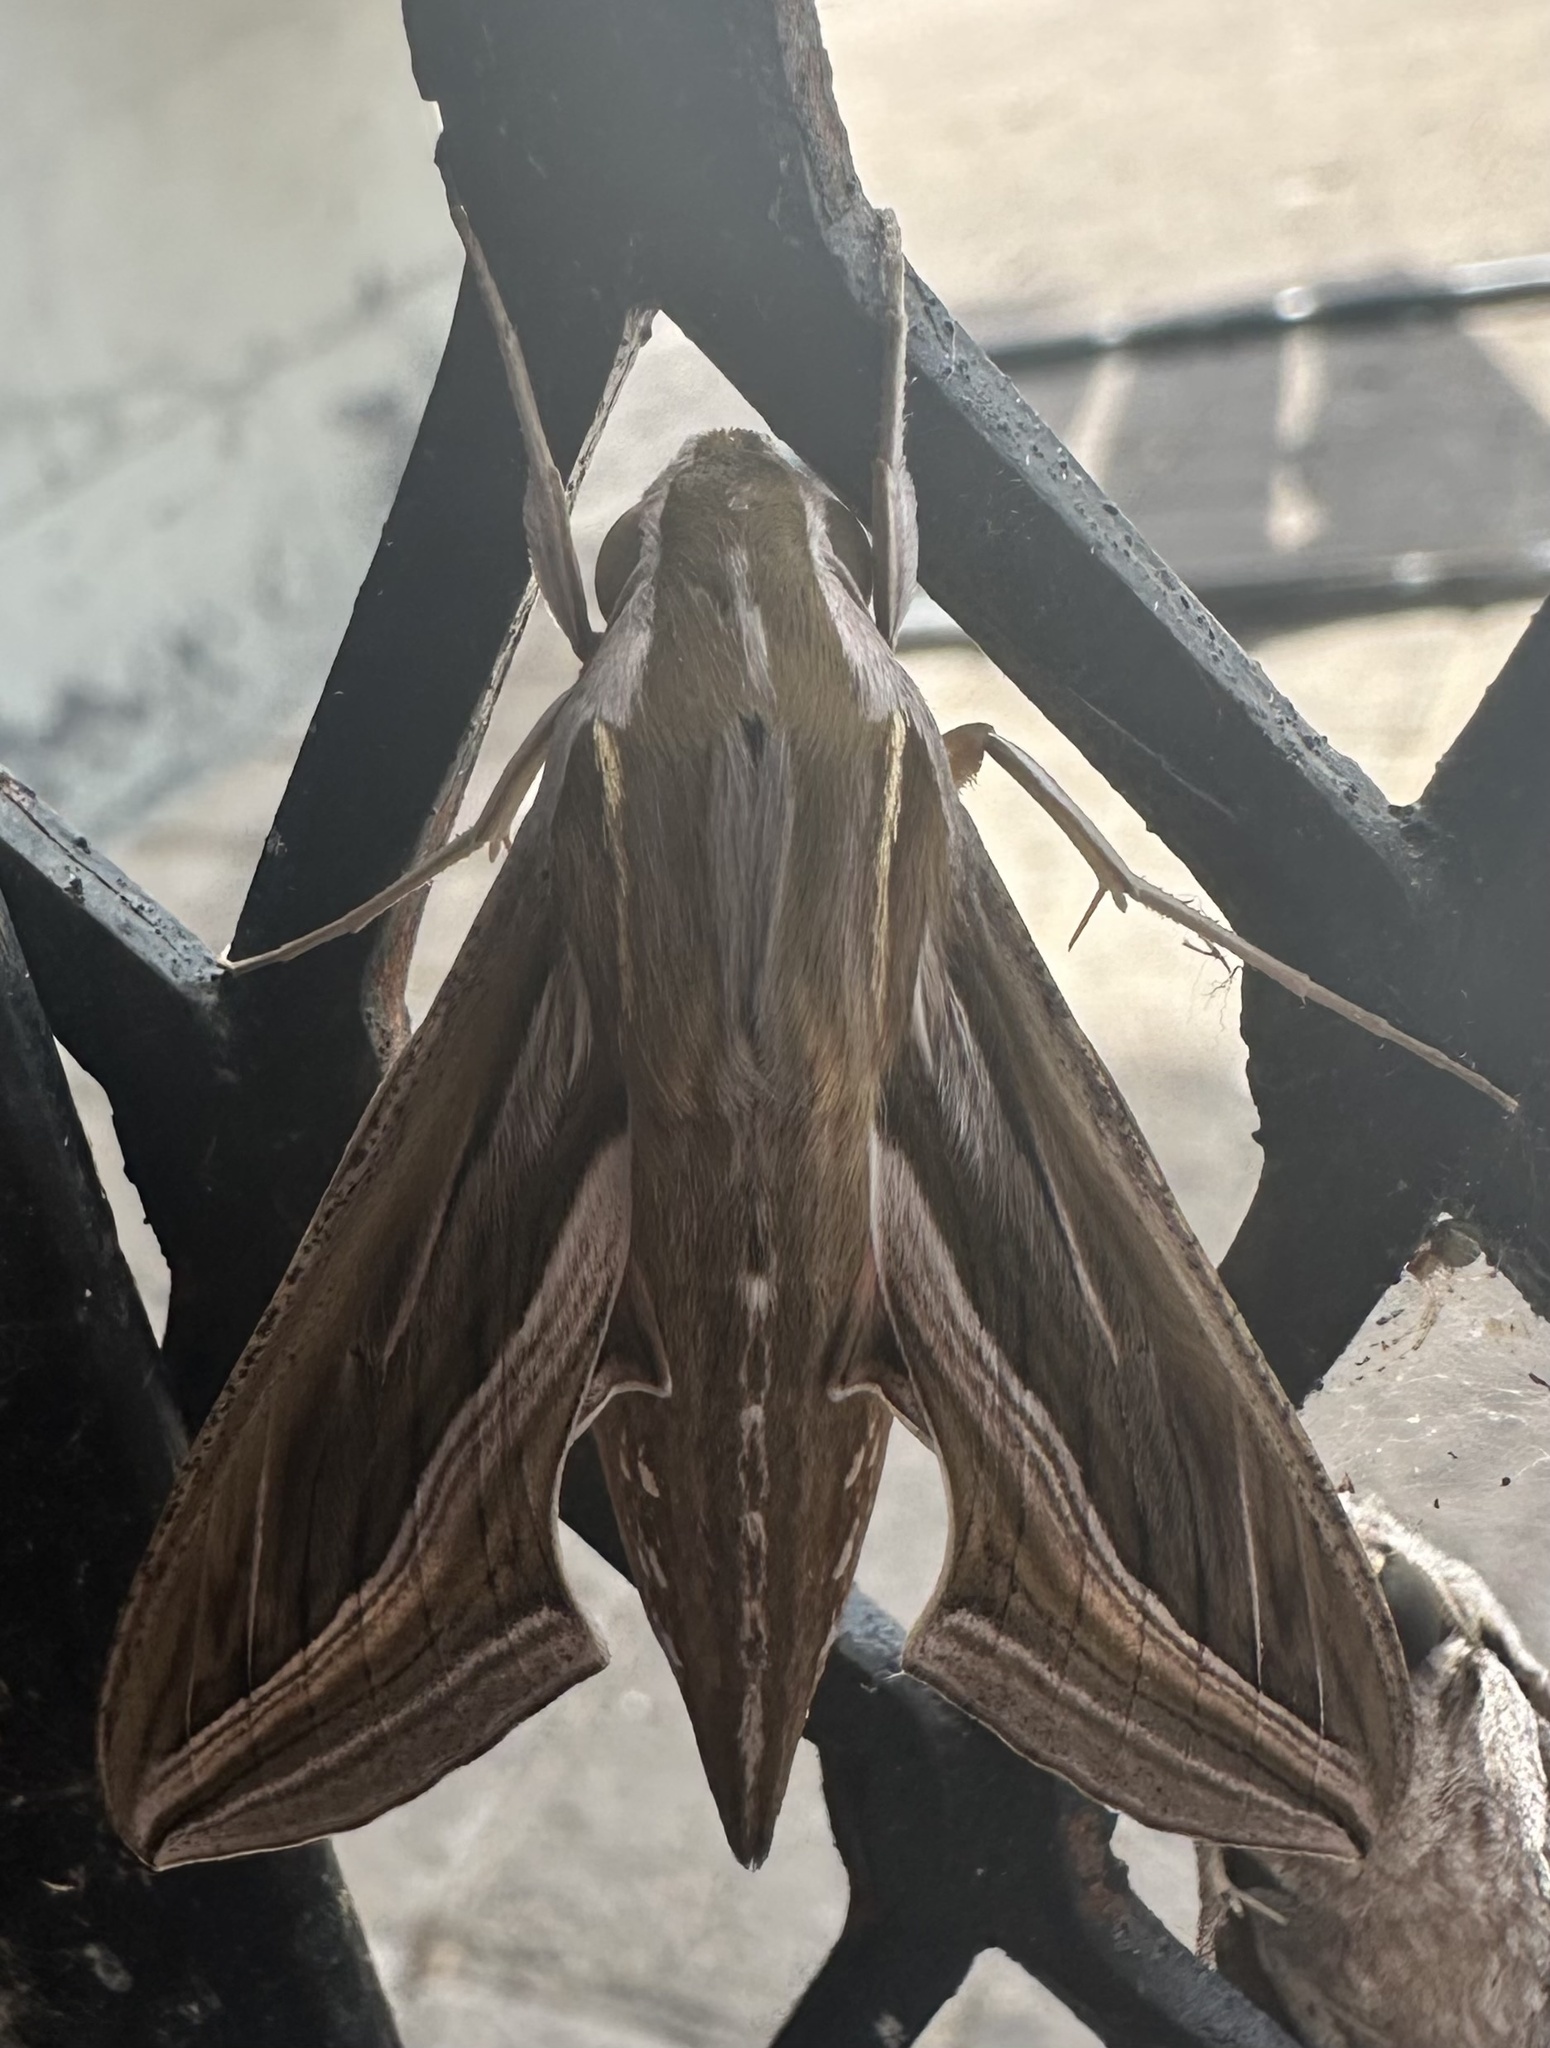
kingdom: Animalia
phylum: Arthropoda
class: Insecta
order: Lepidoptera
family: Sphingidae
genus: Hippotion
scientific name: Hippotion celerio
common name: Silver-striped hawk-moth
